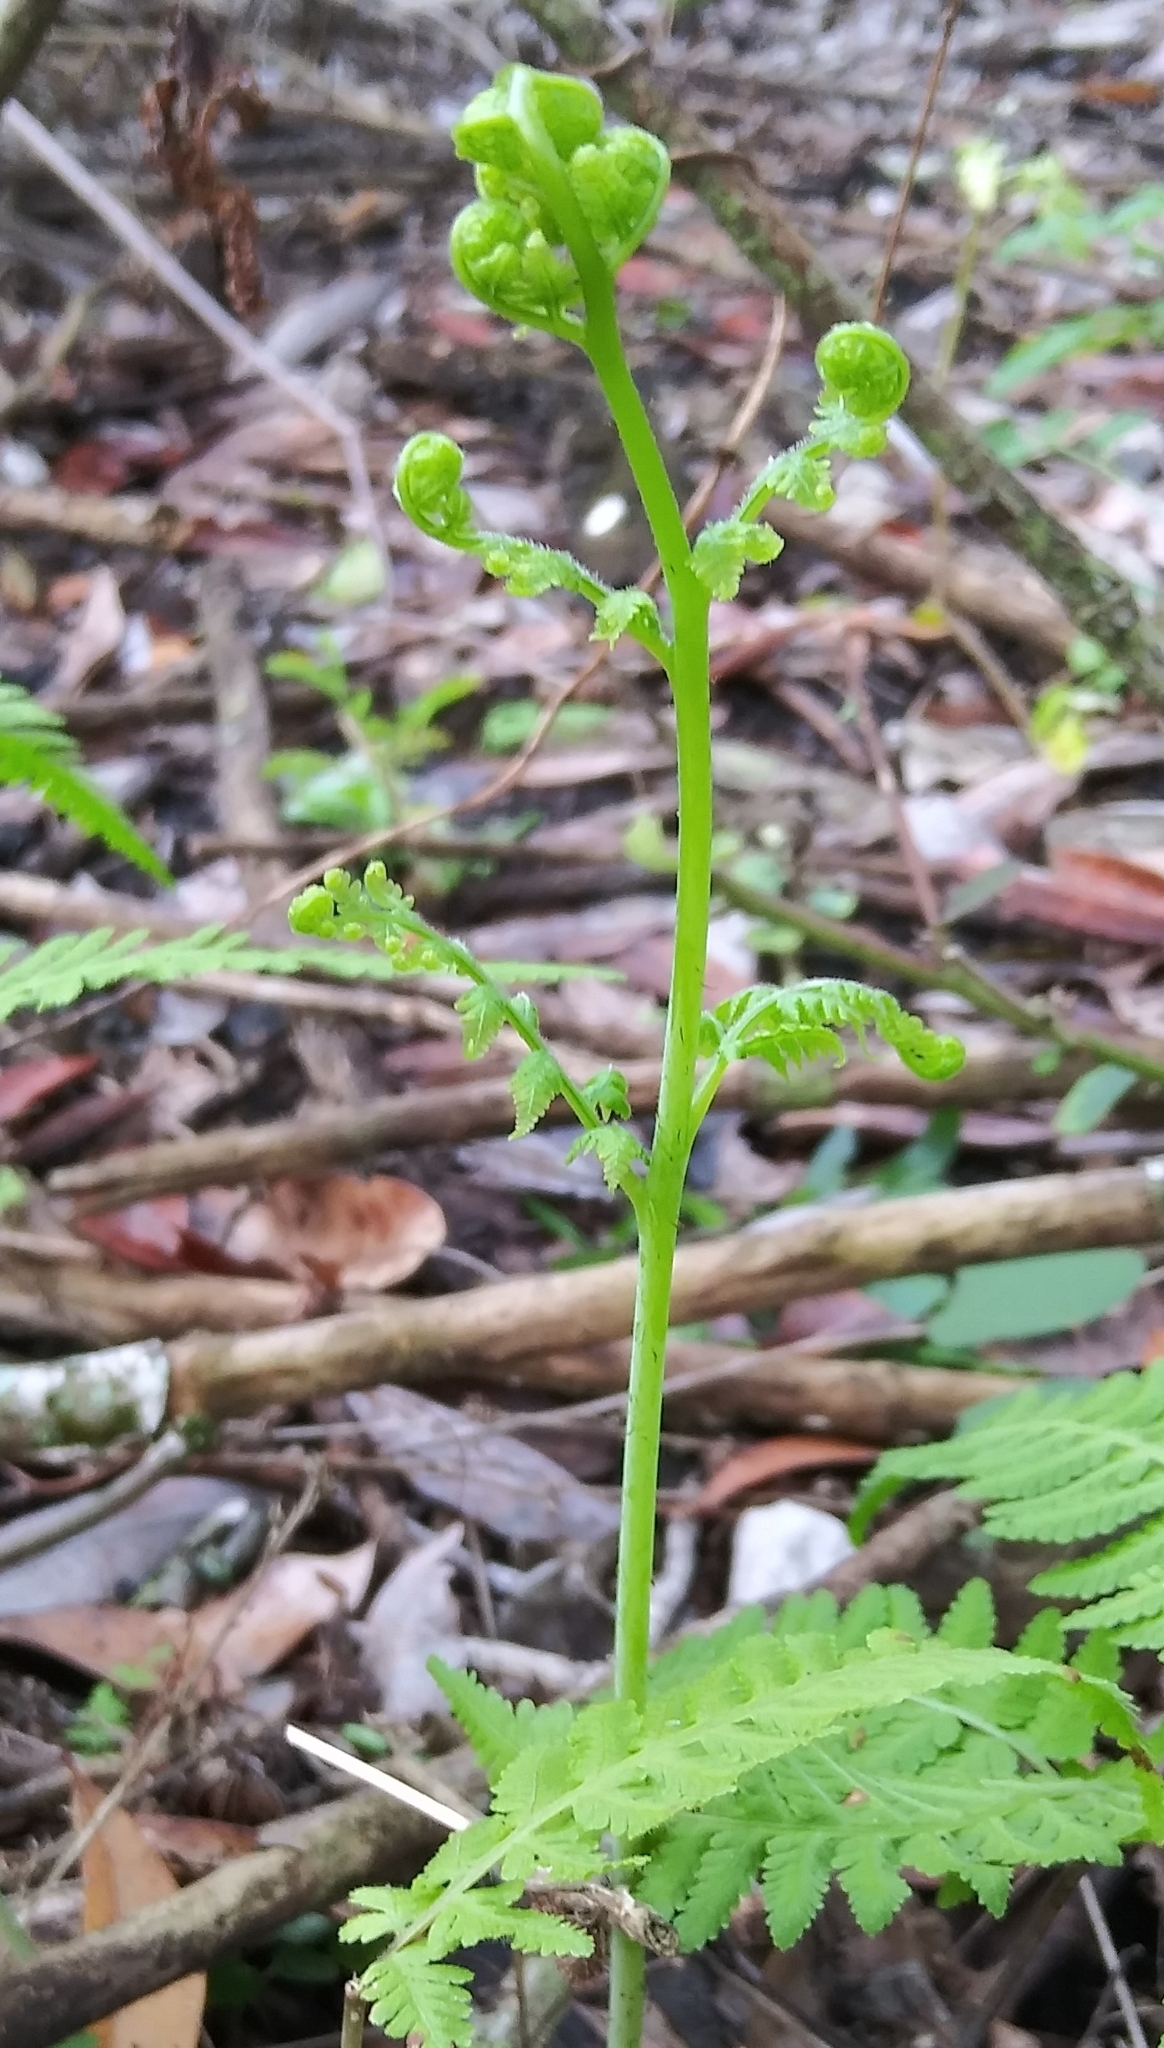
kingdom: Plantae
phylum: Tracheophyta
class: Polypodiopsida
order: Polypodiales
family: Thelypteridaceae
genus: Macrothelypteris
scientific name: Macrothelypteris torresiana
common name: Swordfern
